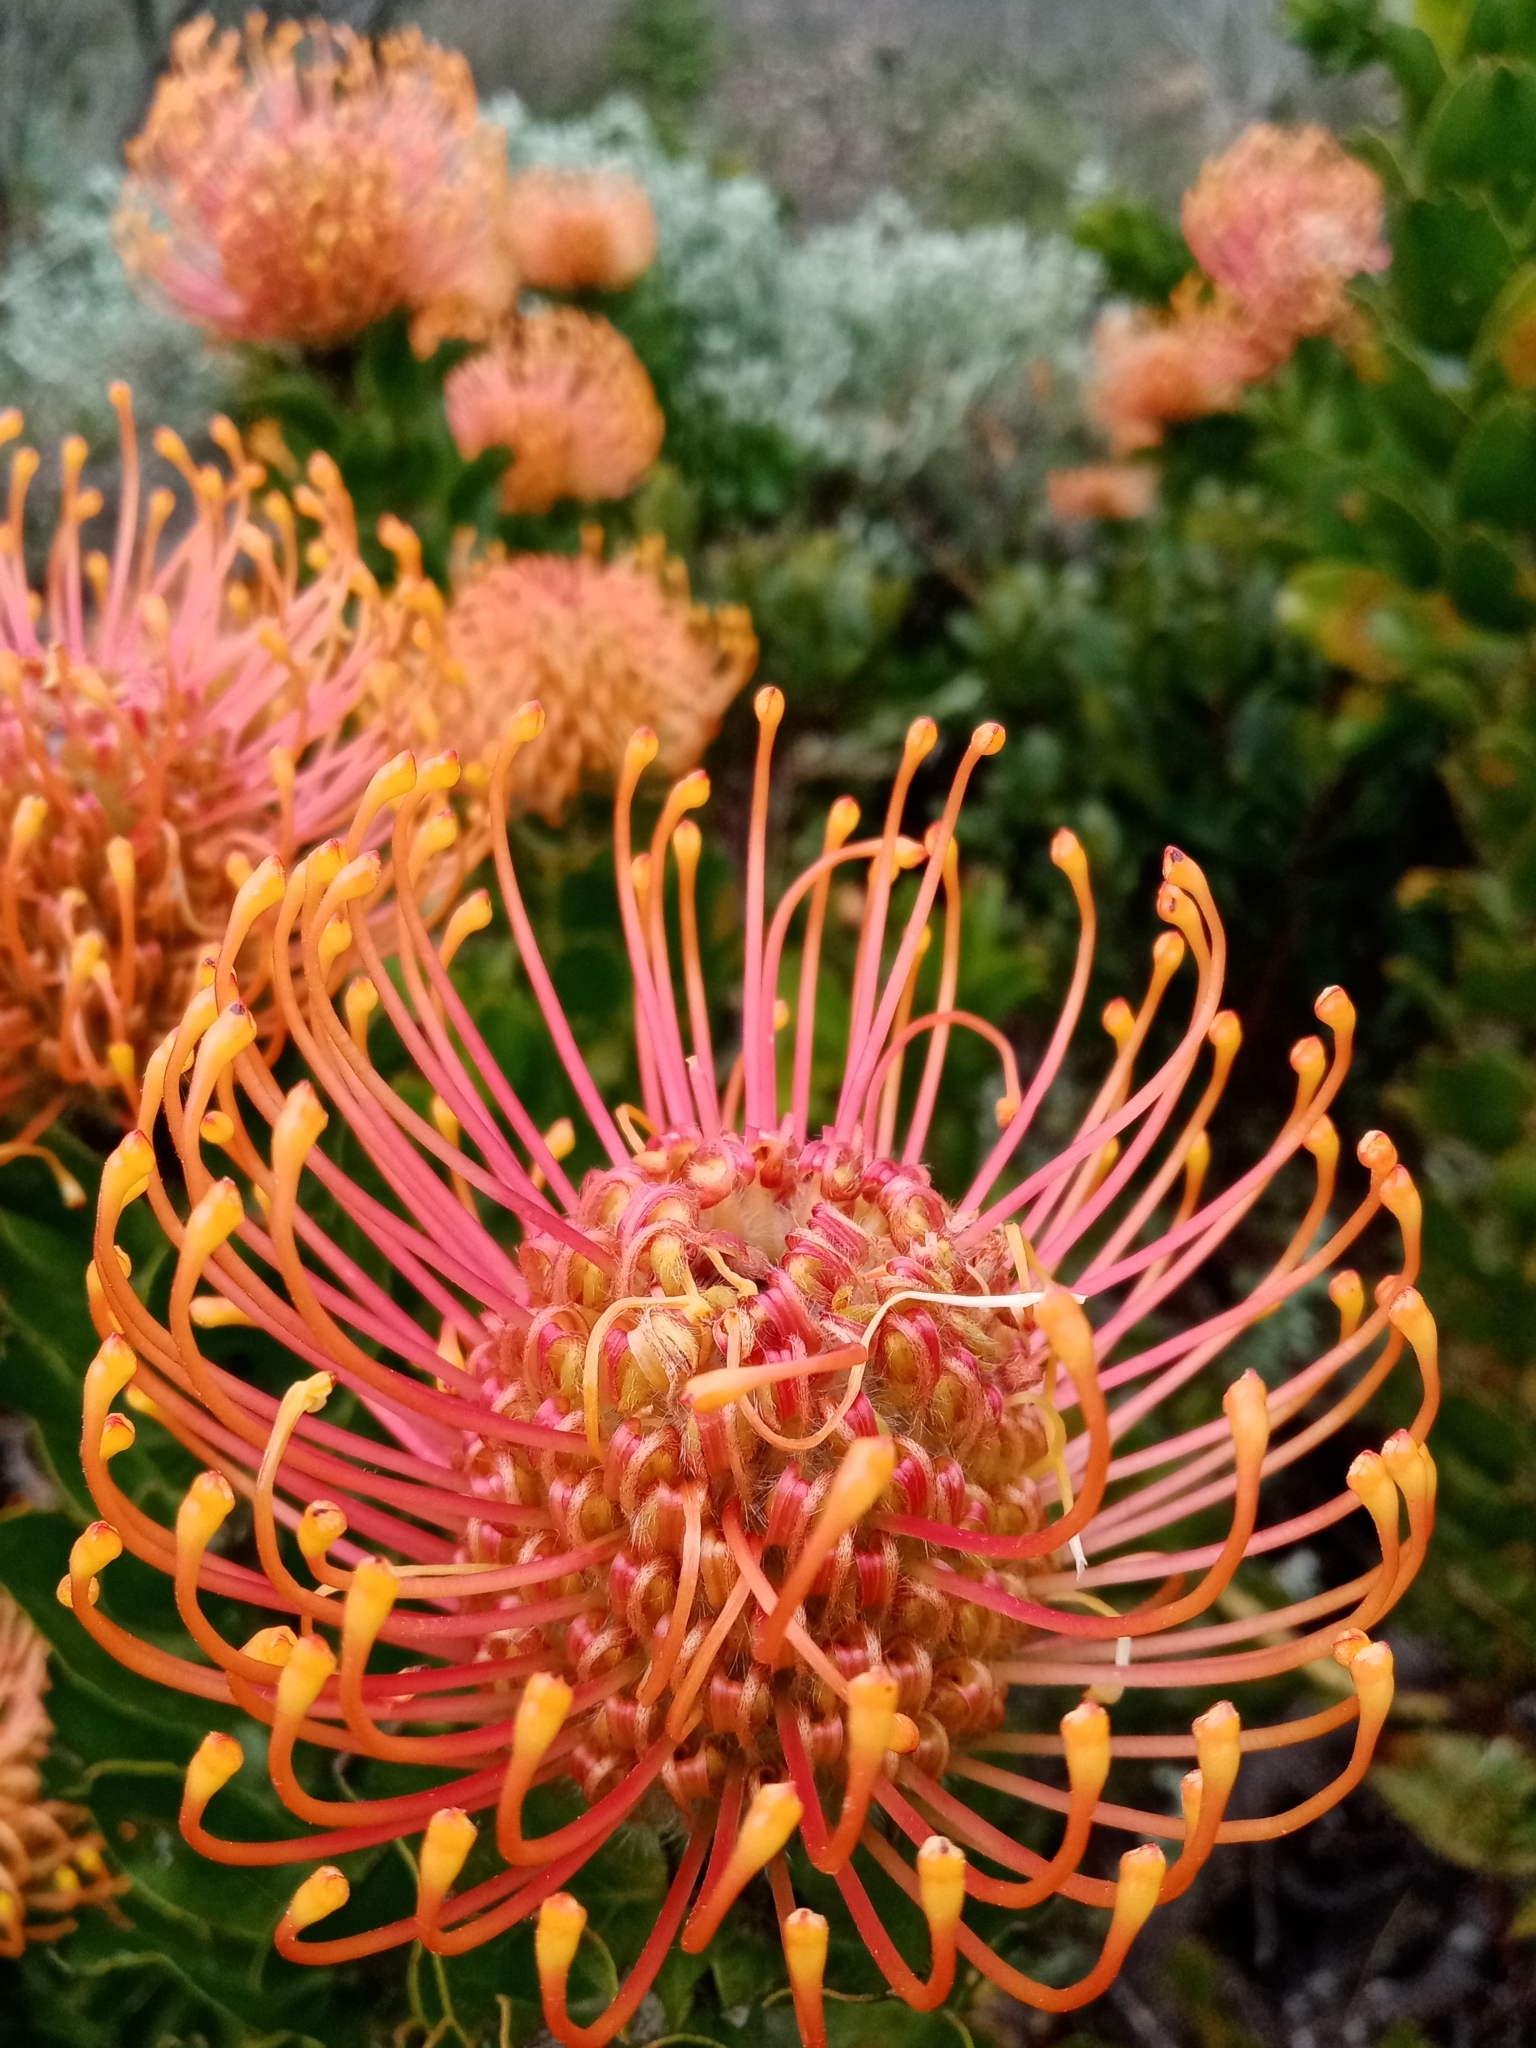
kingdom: Plantae
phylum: Tracheophyta
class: Magnoliopsida
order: Proteales
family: Proteaceae
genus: Leucospermum
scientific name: Leucospermum cordifolium
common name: Red pincushion-protea
